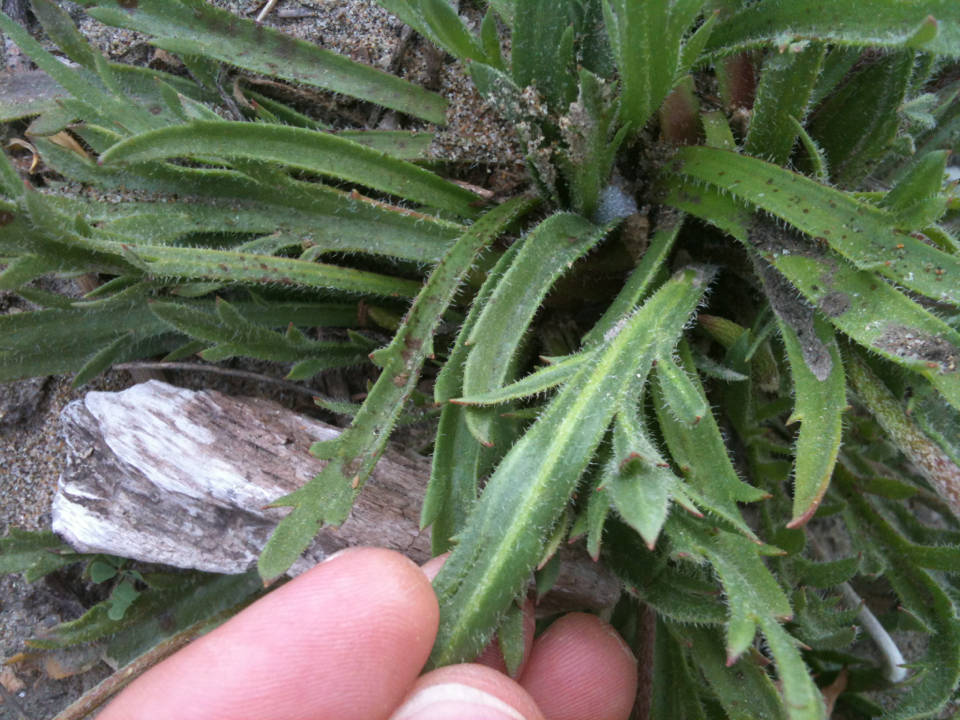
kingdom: Plantae
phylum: Tracheophyta
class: Magnoliopsida
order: Lamiales
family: Plantaginaceae
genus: Plantago
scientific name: Plantago coronopus
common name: Buck's-horn plantain
